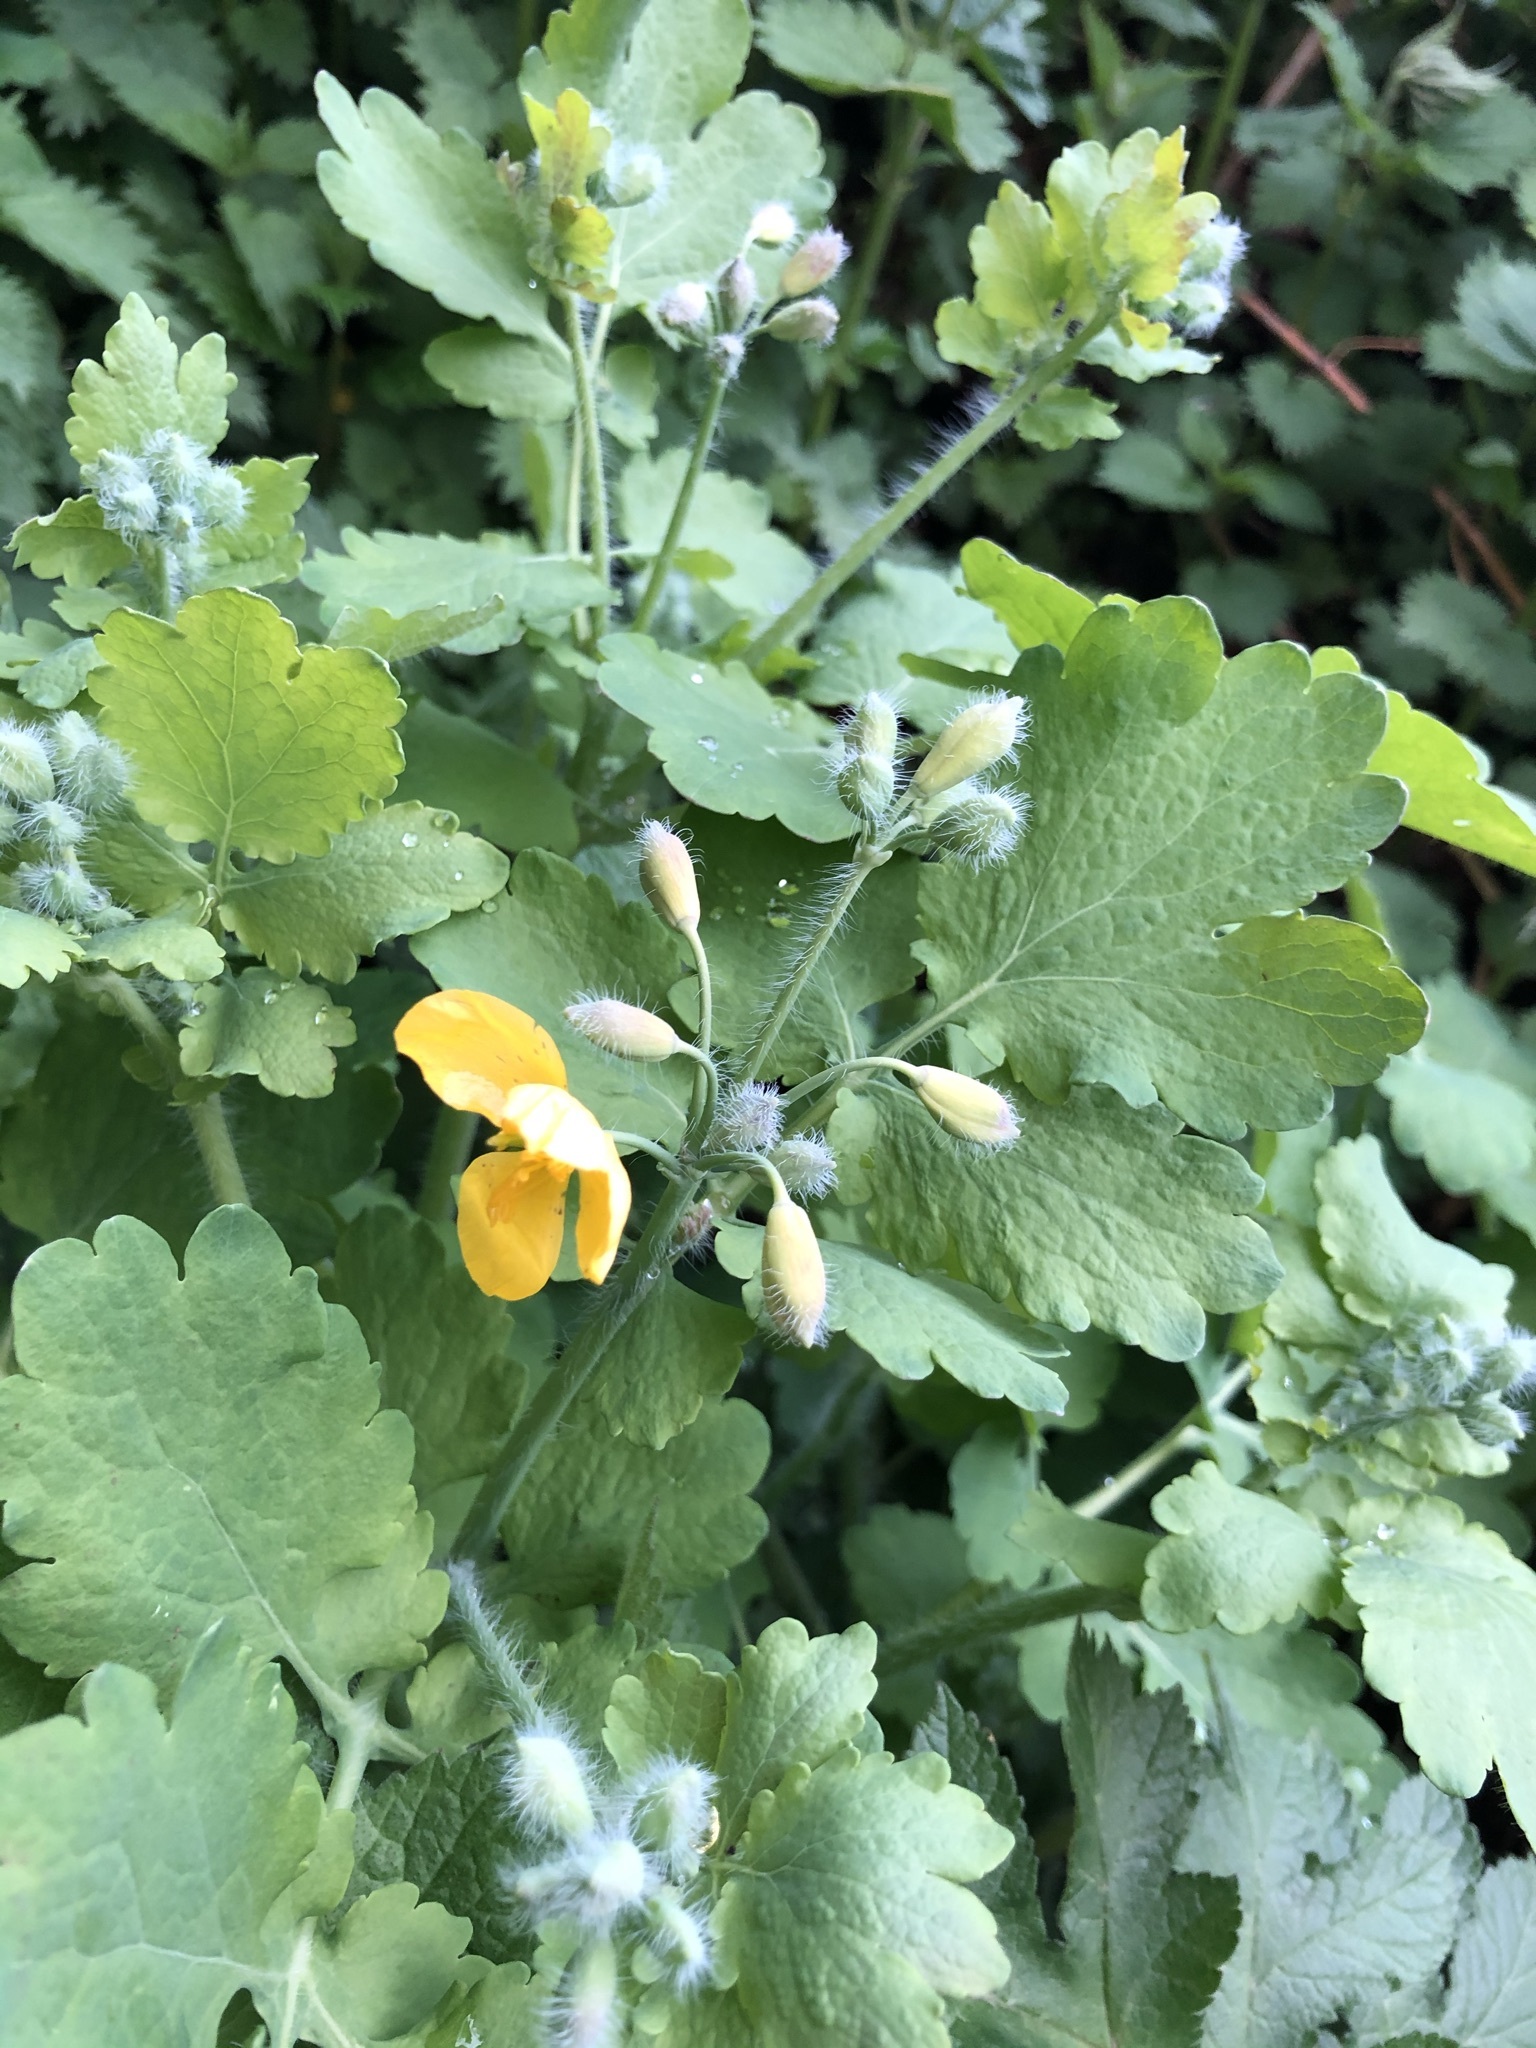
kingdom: Plantae
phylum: Tracheophyta
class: Magnoliopsida
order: Ranunculales
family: Papaveraceae
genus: Chelidonium
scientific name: Chelidonium majus
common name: Greater celandine
